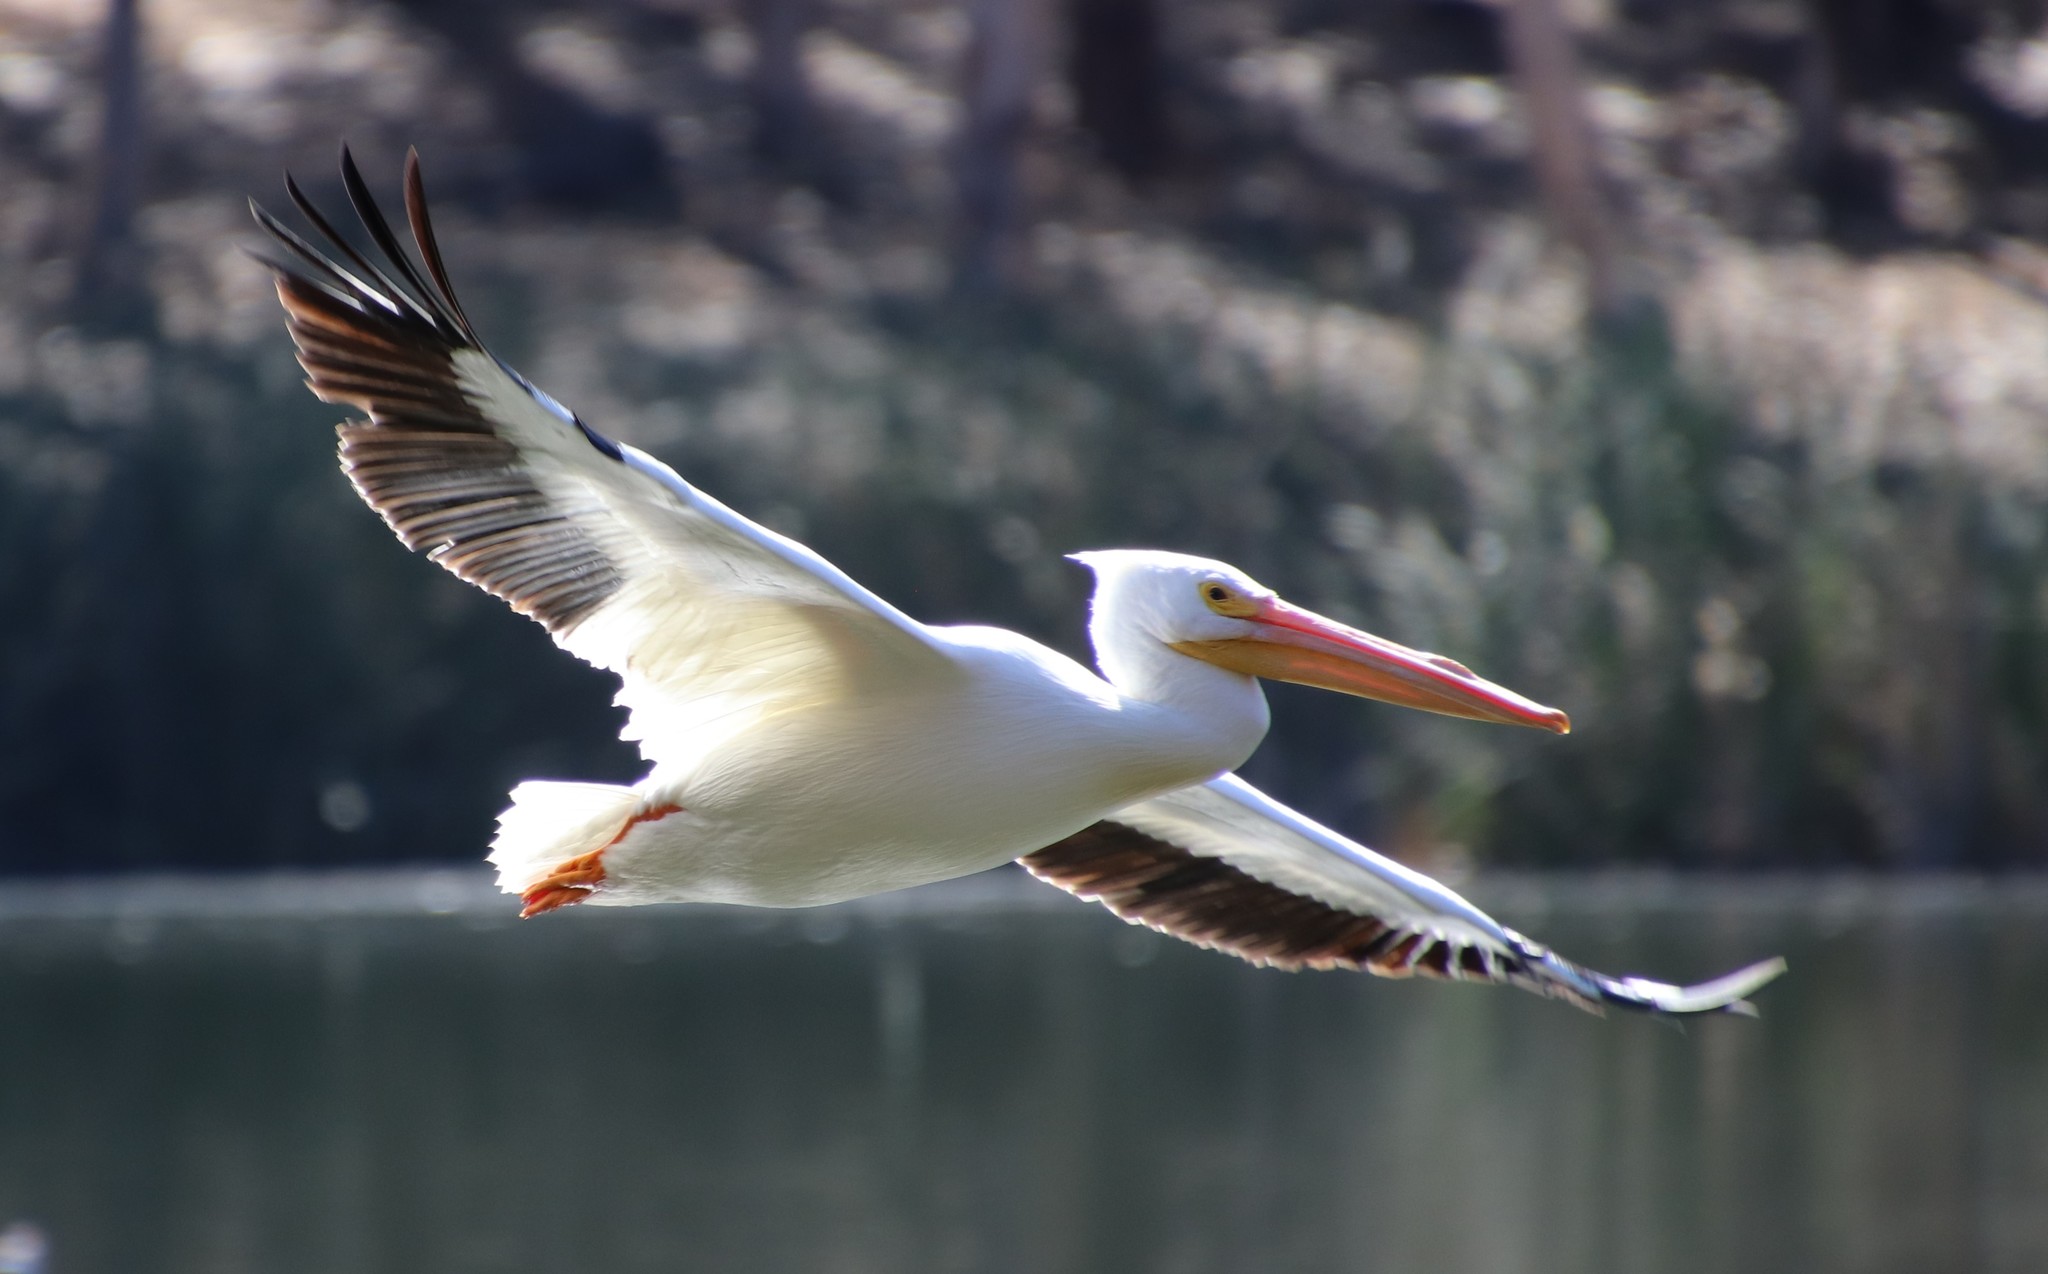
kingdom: Animalia
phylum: Chordata
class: Aves
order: Pelecaniformes
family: Pelecanidae
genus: Pelecanus
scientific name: Pelecanus erythrorhynchos
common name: American white pelican
